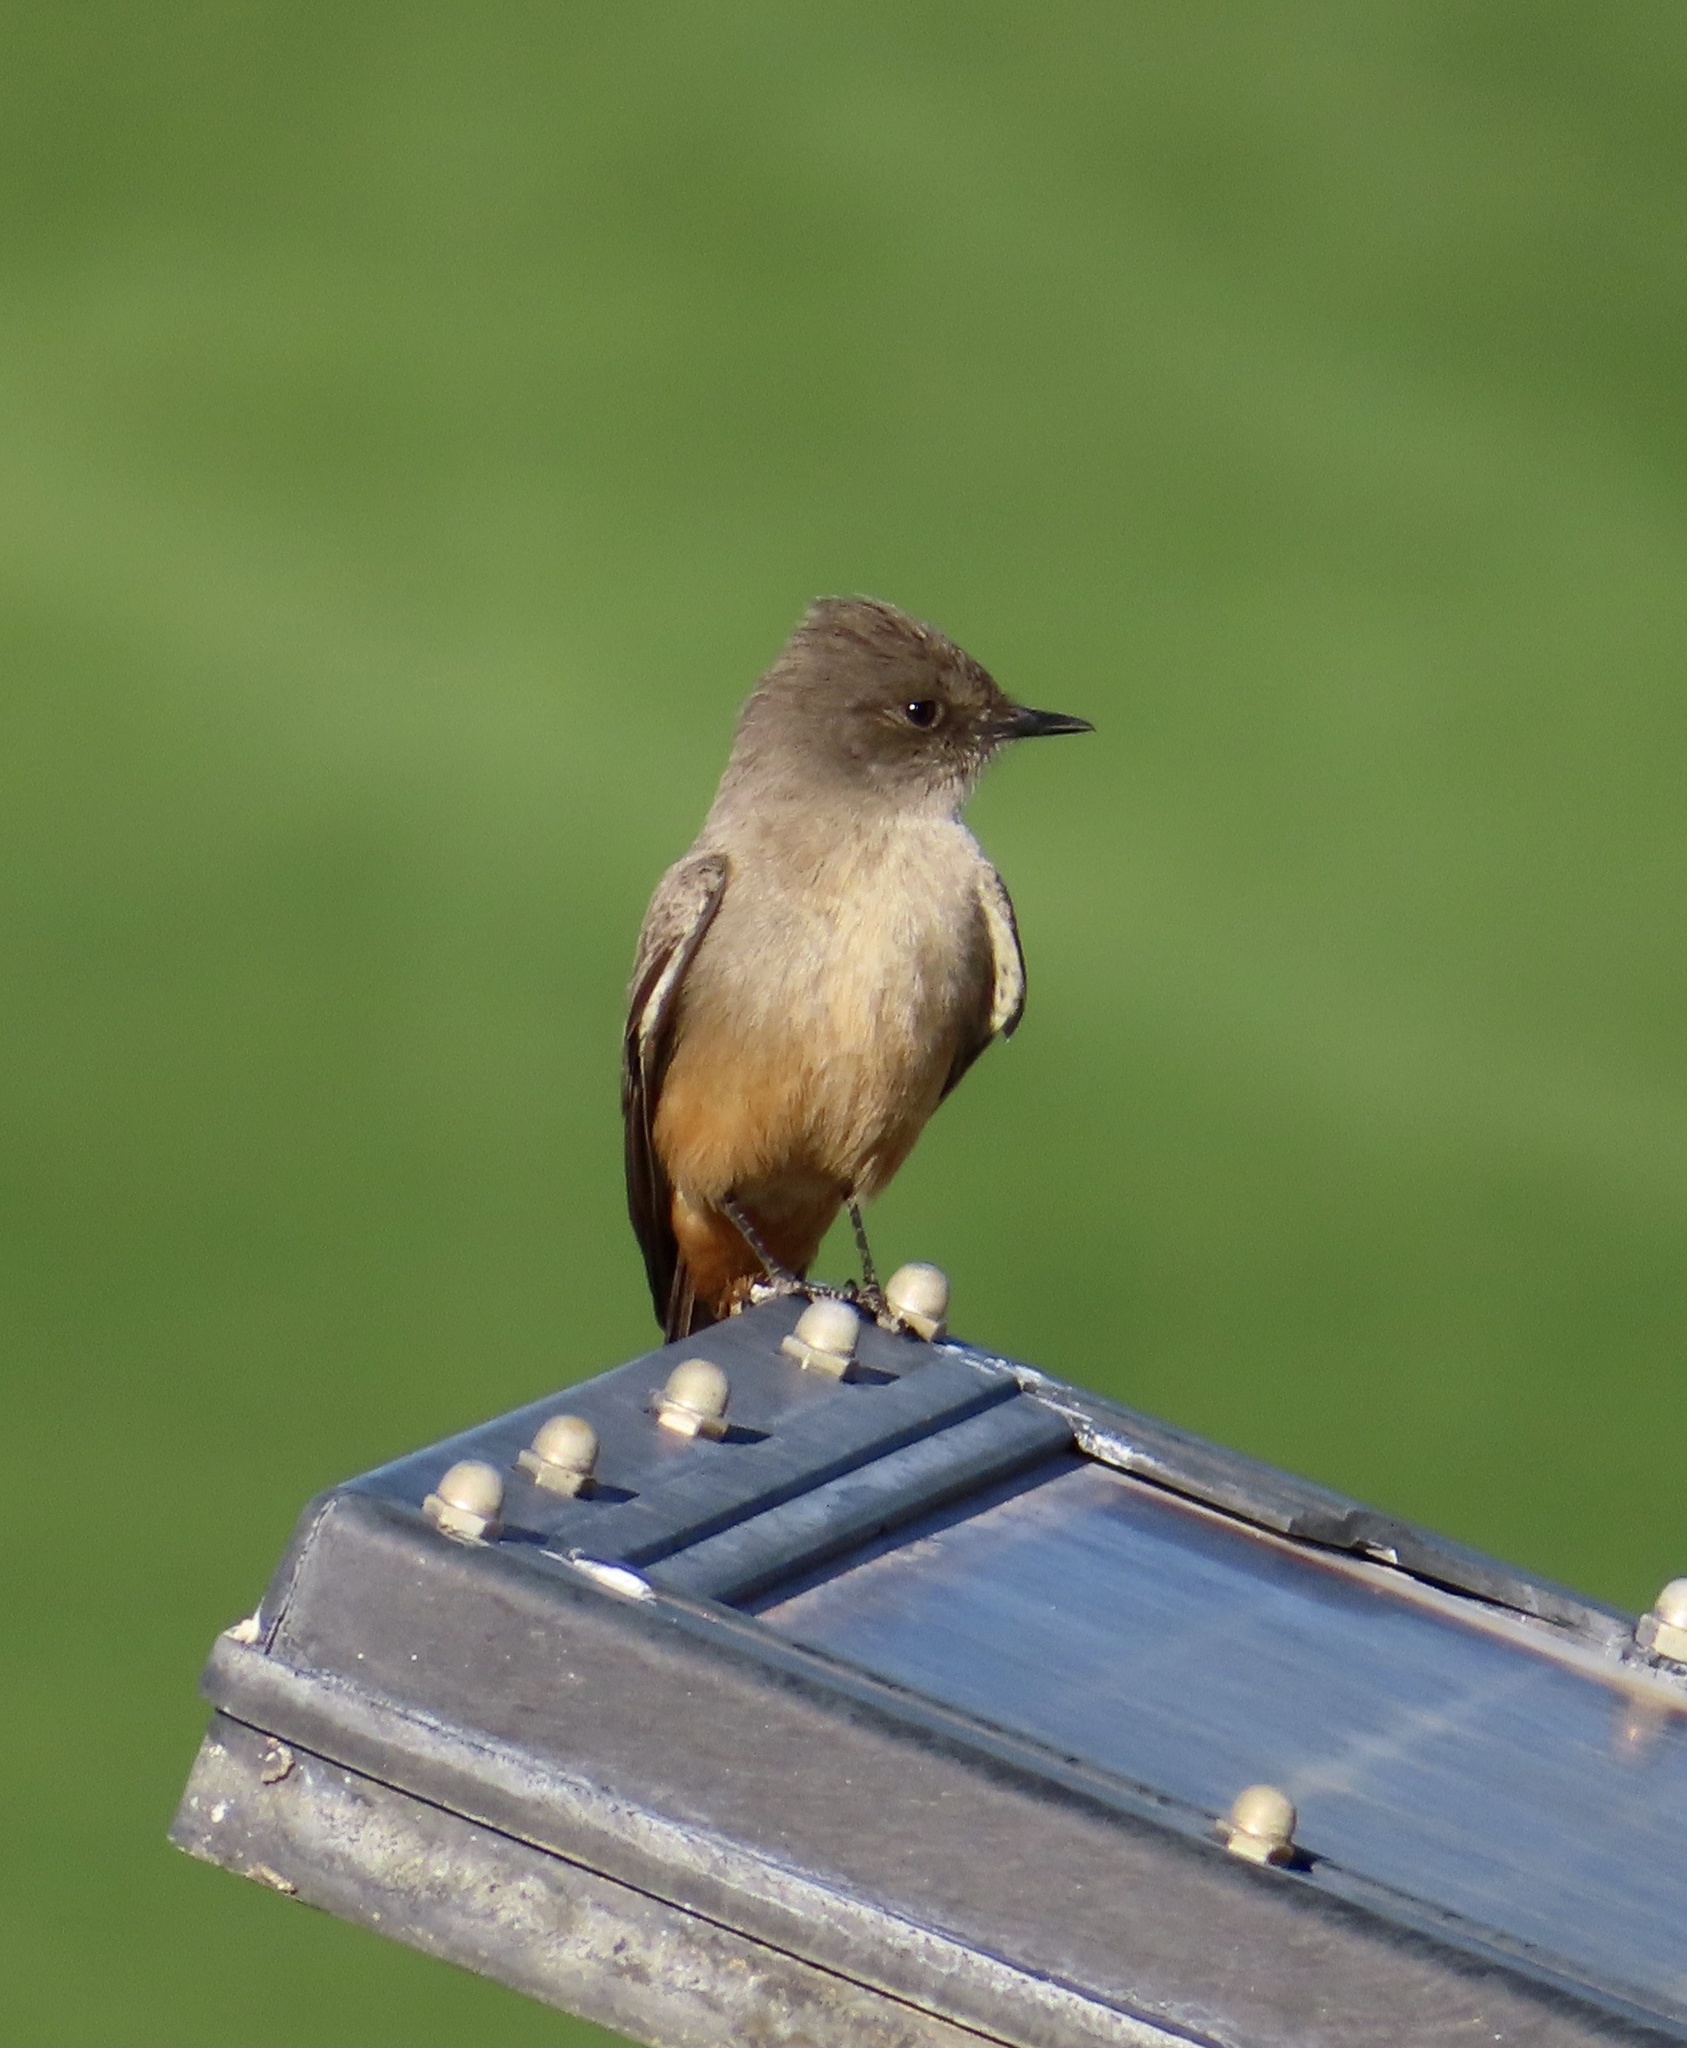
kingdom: Animalia
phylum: Chordata
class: Aves
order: Passeriformes
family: Tyrannidae
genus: Sayornis
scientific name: Sayornis saya
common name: Say's phoebe
